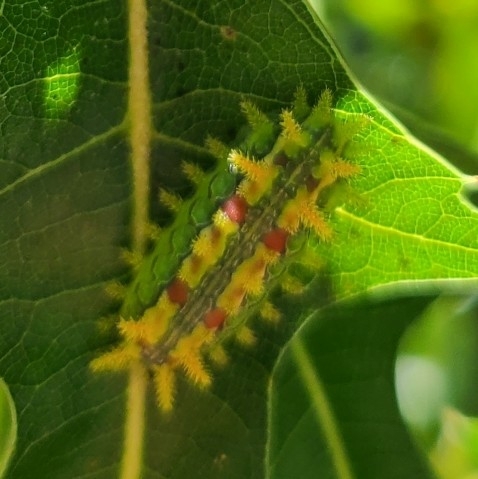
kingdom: Animalia
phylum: Arthropoda
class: Insecta
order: Lepidoptera
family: Limacodidae
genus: Euclea
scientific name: Euclea delphinii
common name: Spiny oak-slug moth
